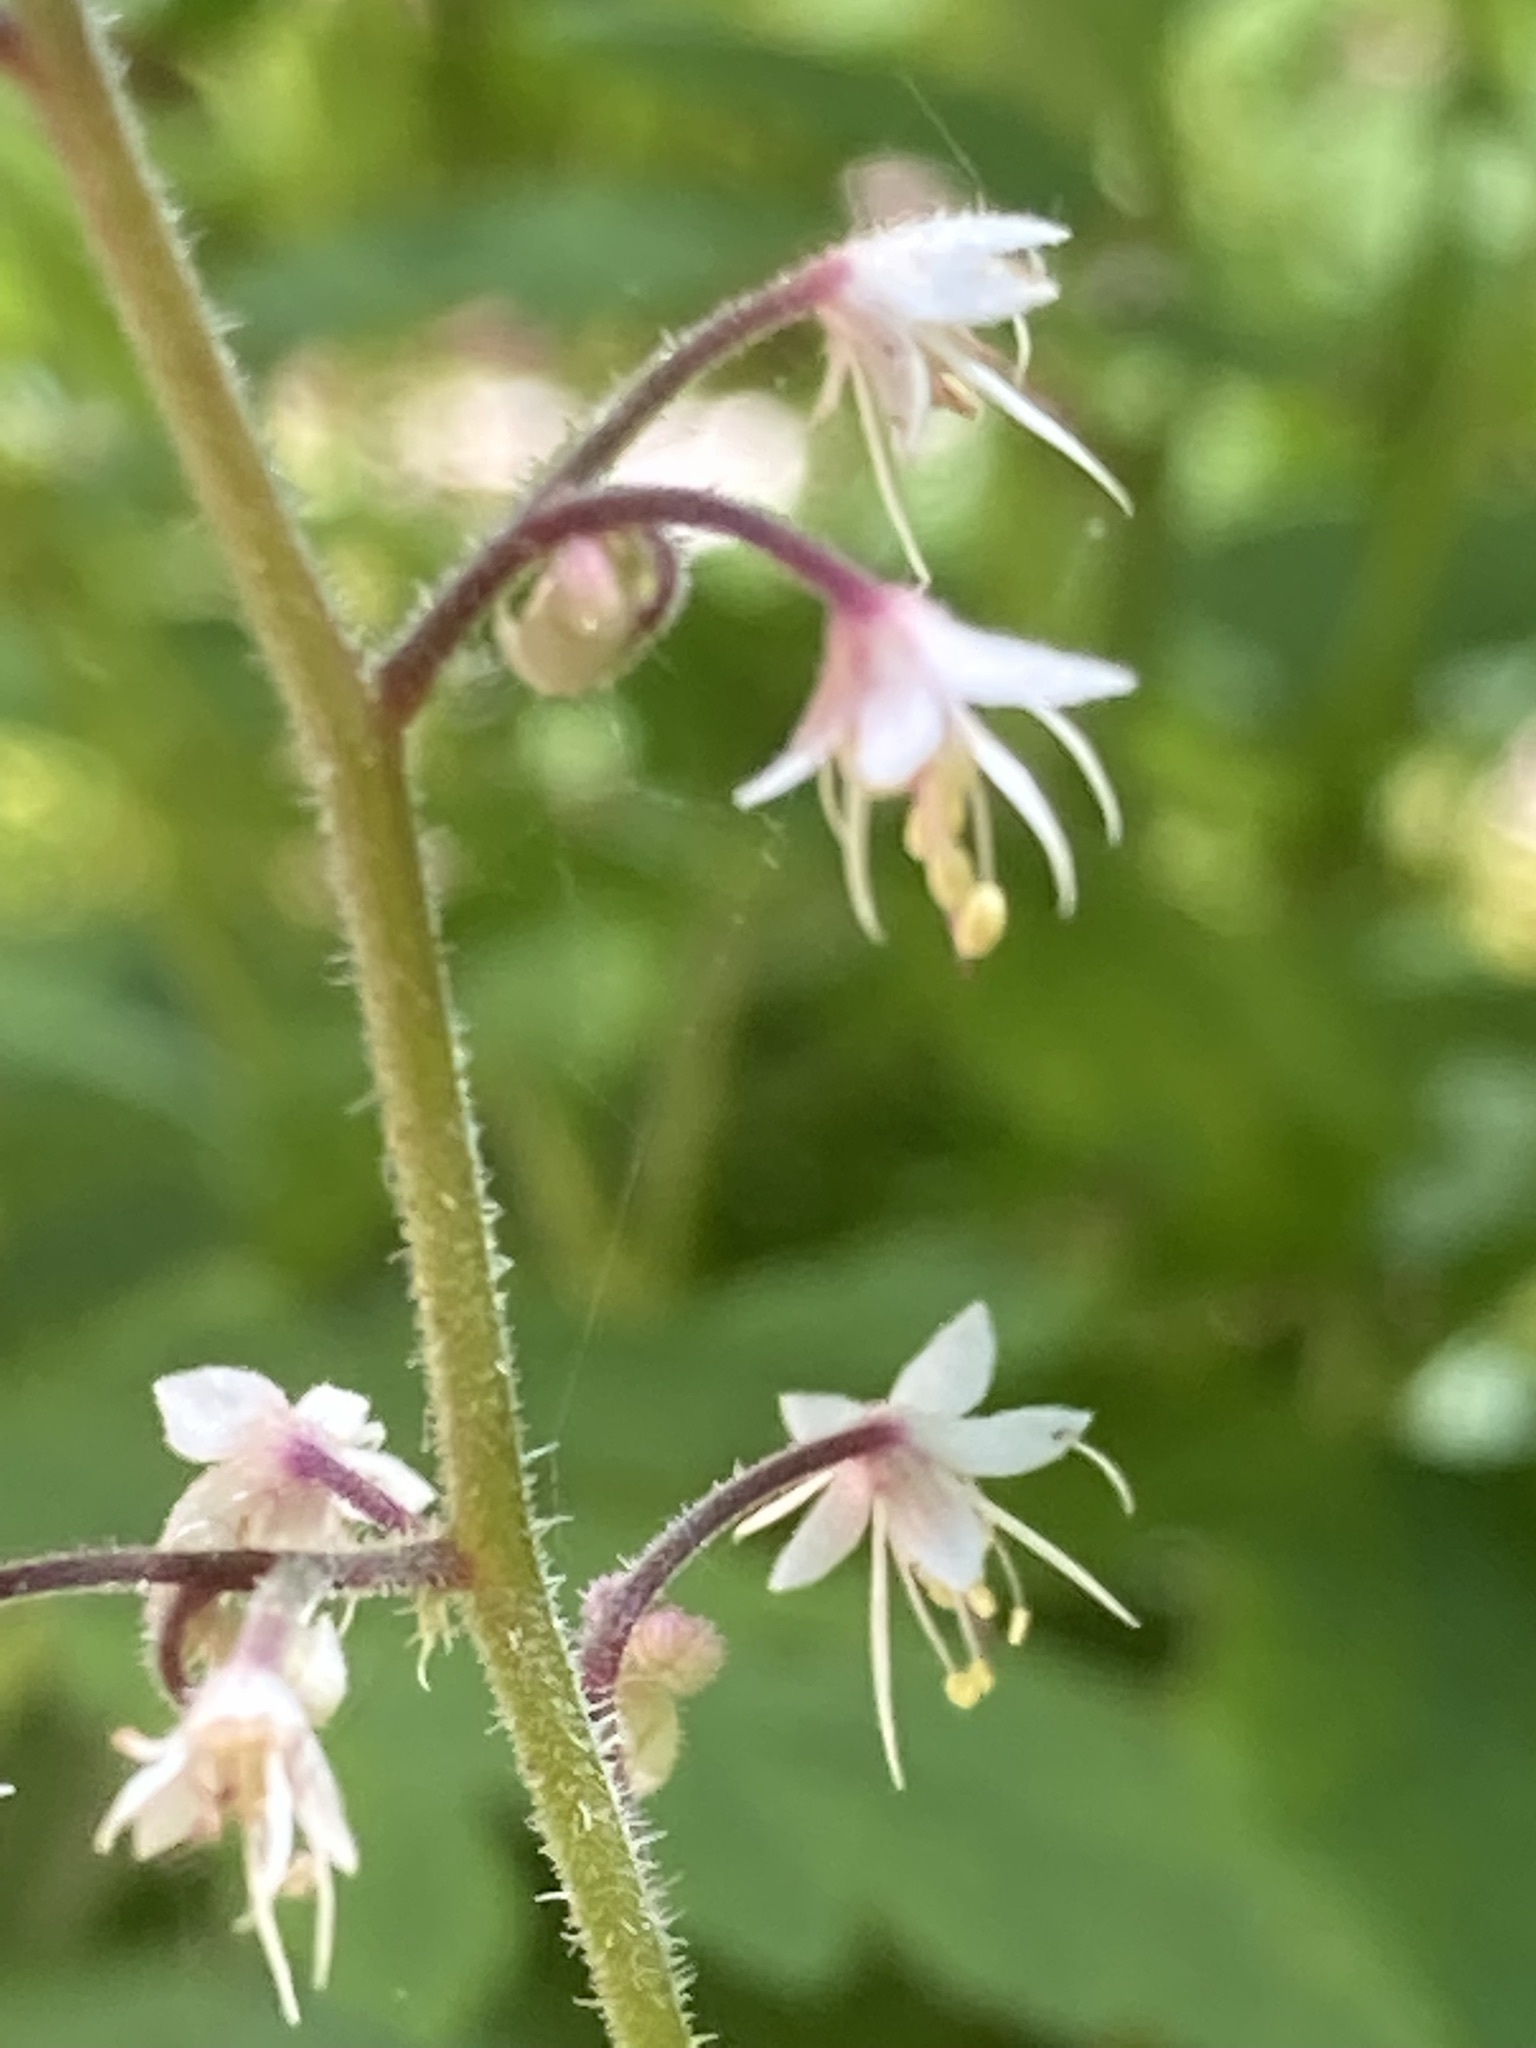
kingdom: Plantae
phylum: Tracheophyta
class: Magnoliopsida
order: Saxifragales
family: Saxifragaceae
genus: Tiarella
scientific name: Tiarella trifoliata
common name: Sugar-scoop
